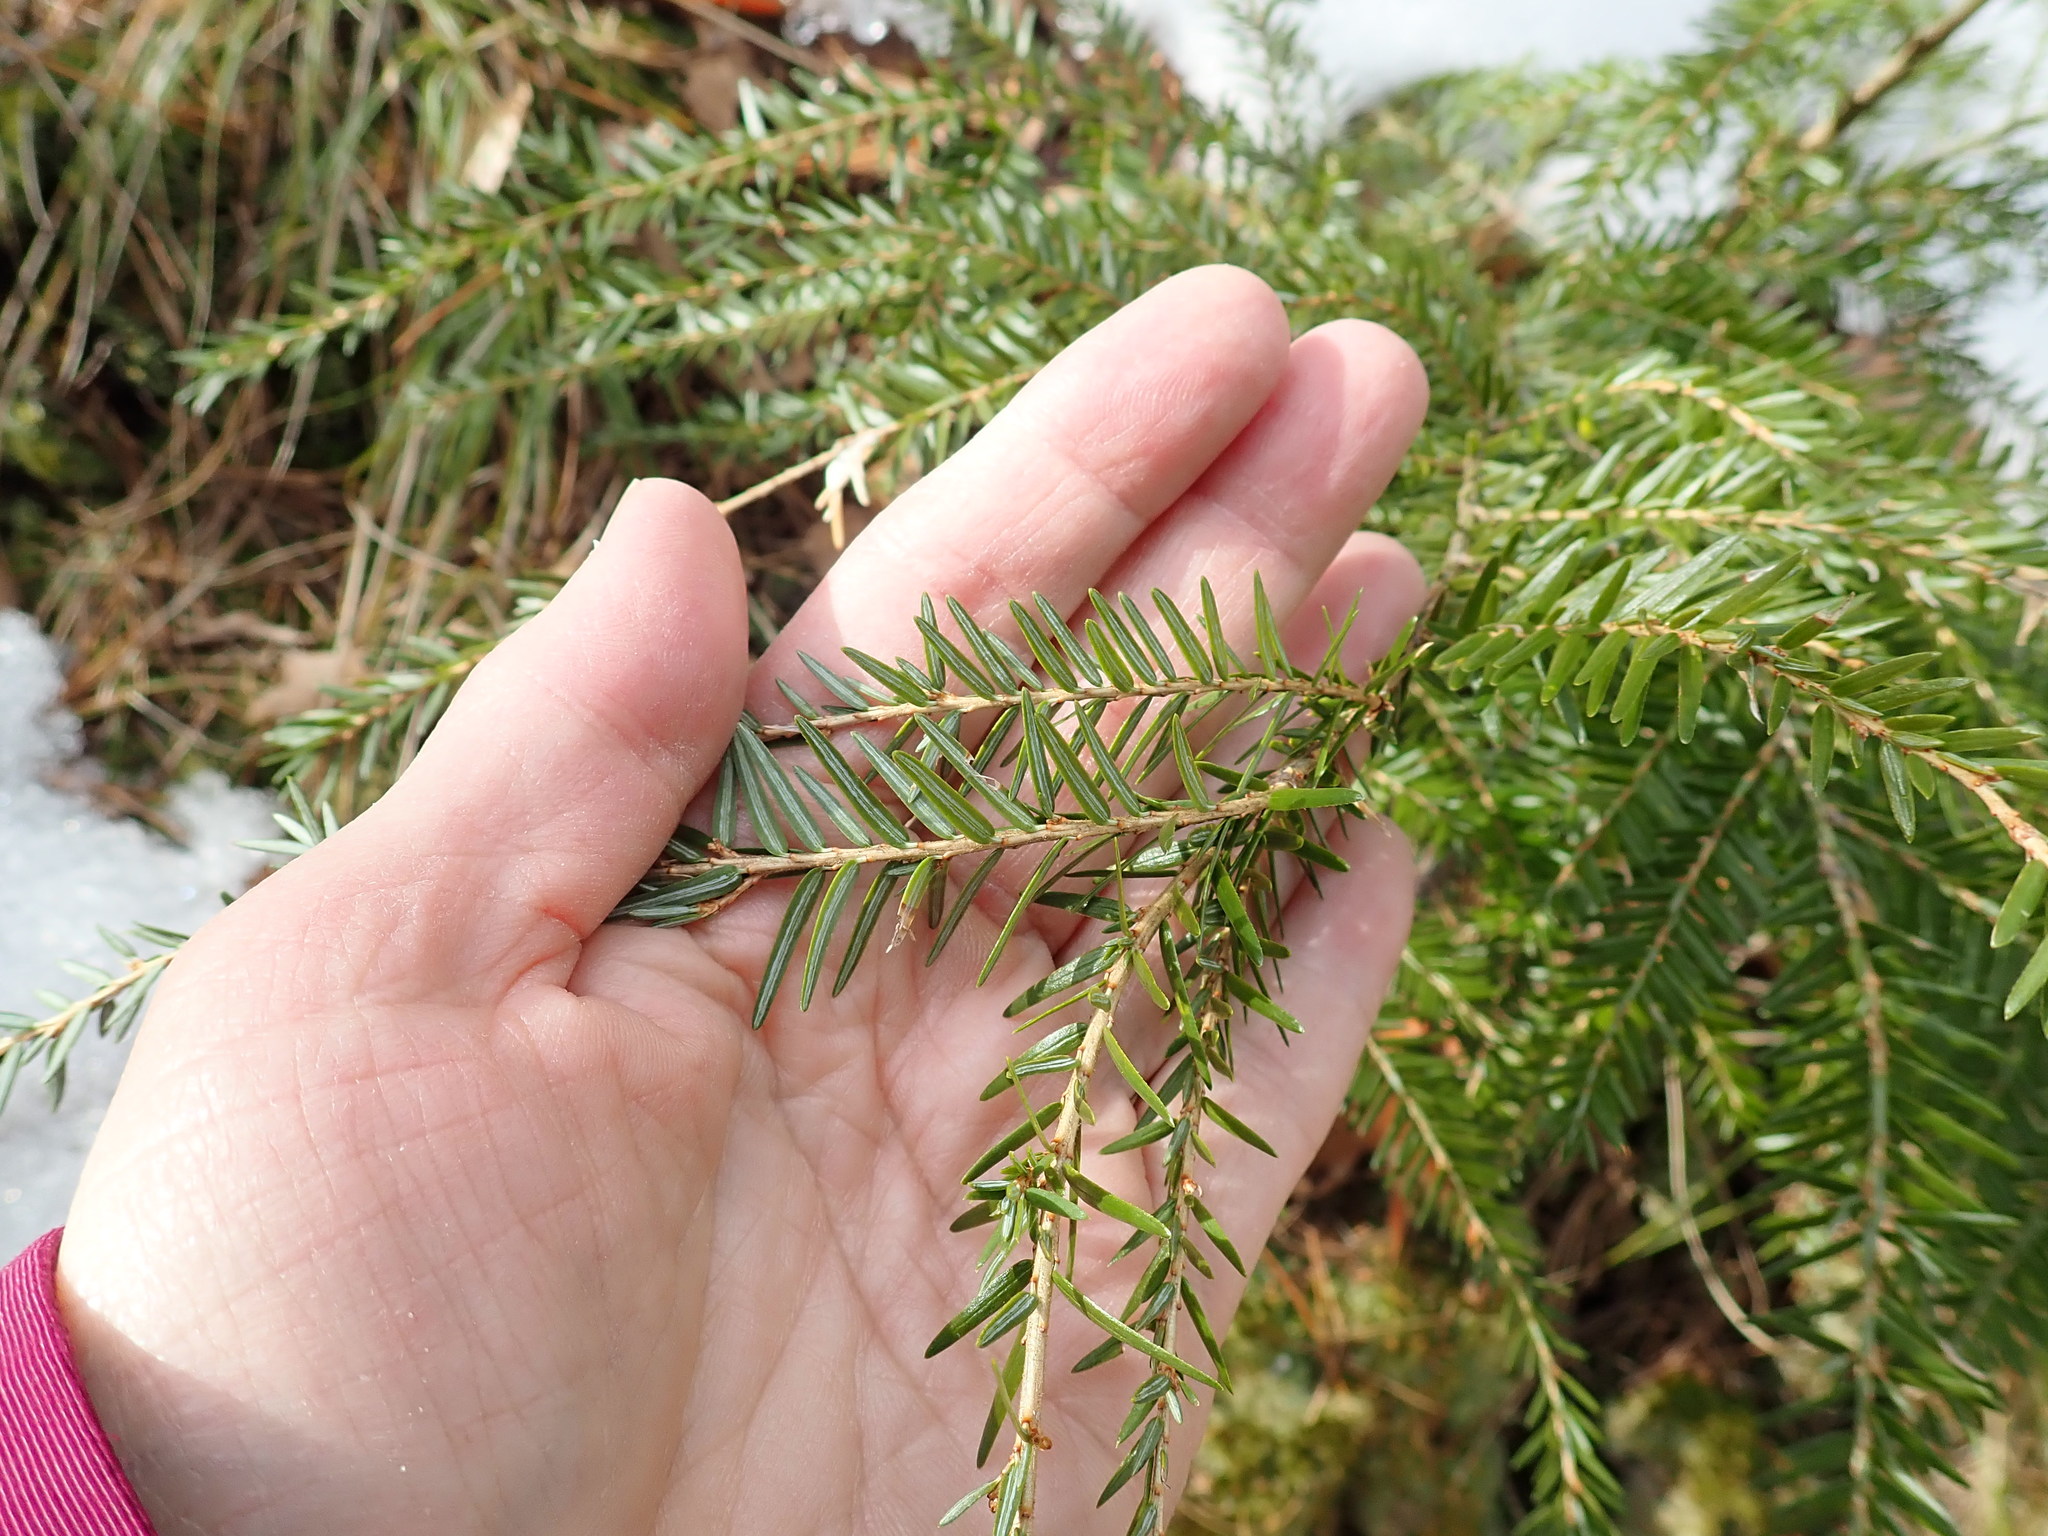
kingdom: Plantae
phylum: Tracheophyta
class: Pinopsida
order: Pinales
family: Pinaceae
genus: Tsuga
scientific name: Tsuga canadensis
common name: Eastern hemlock
